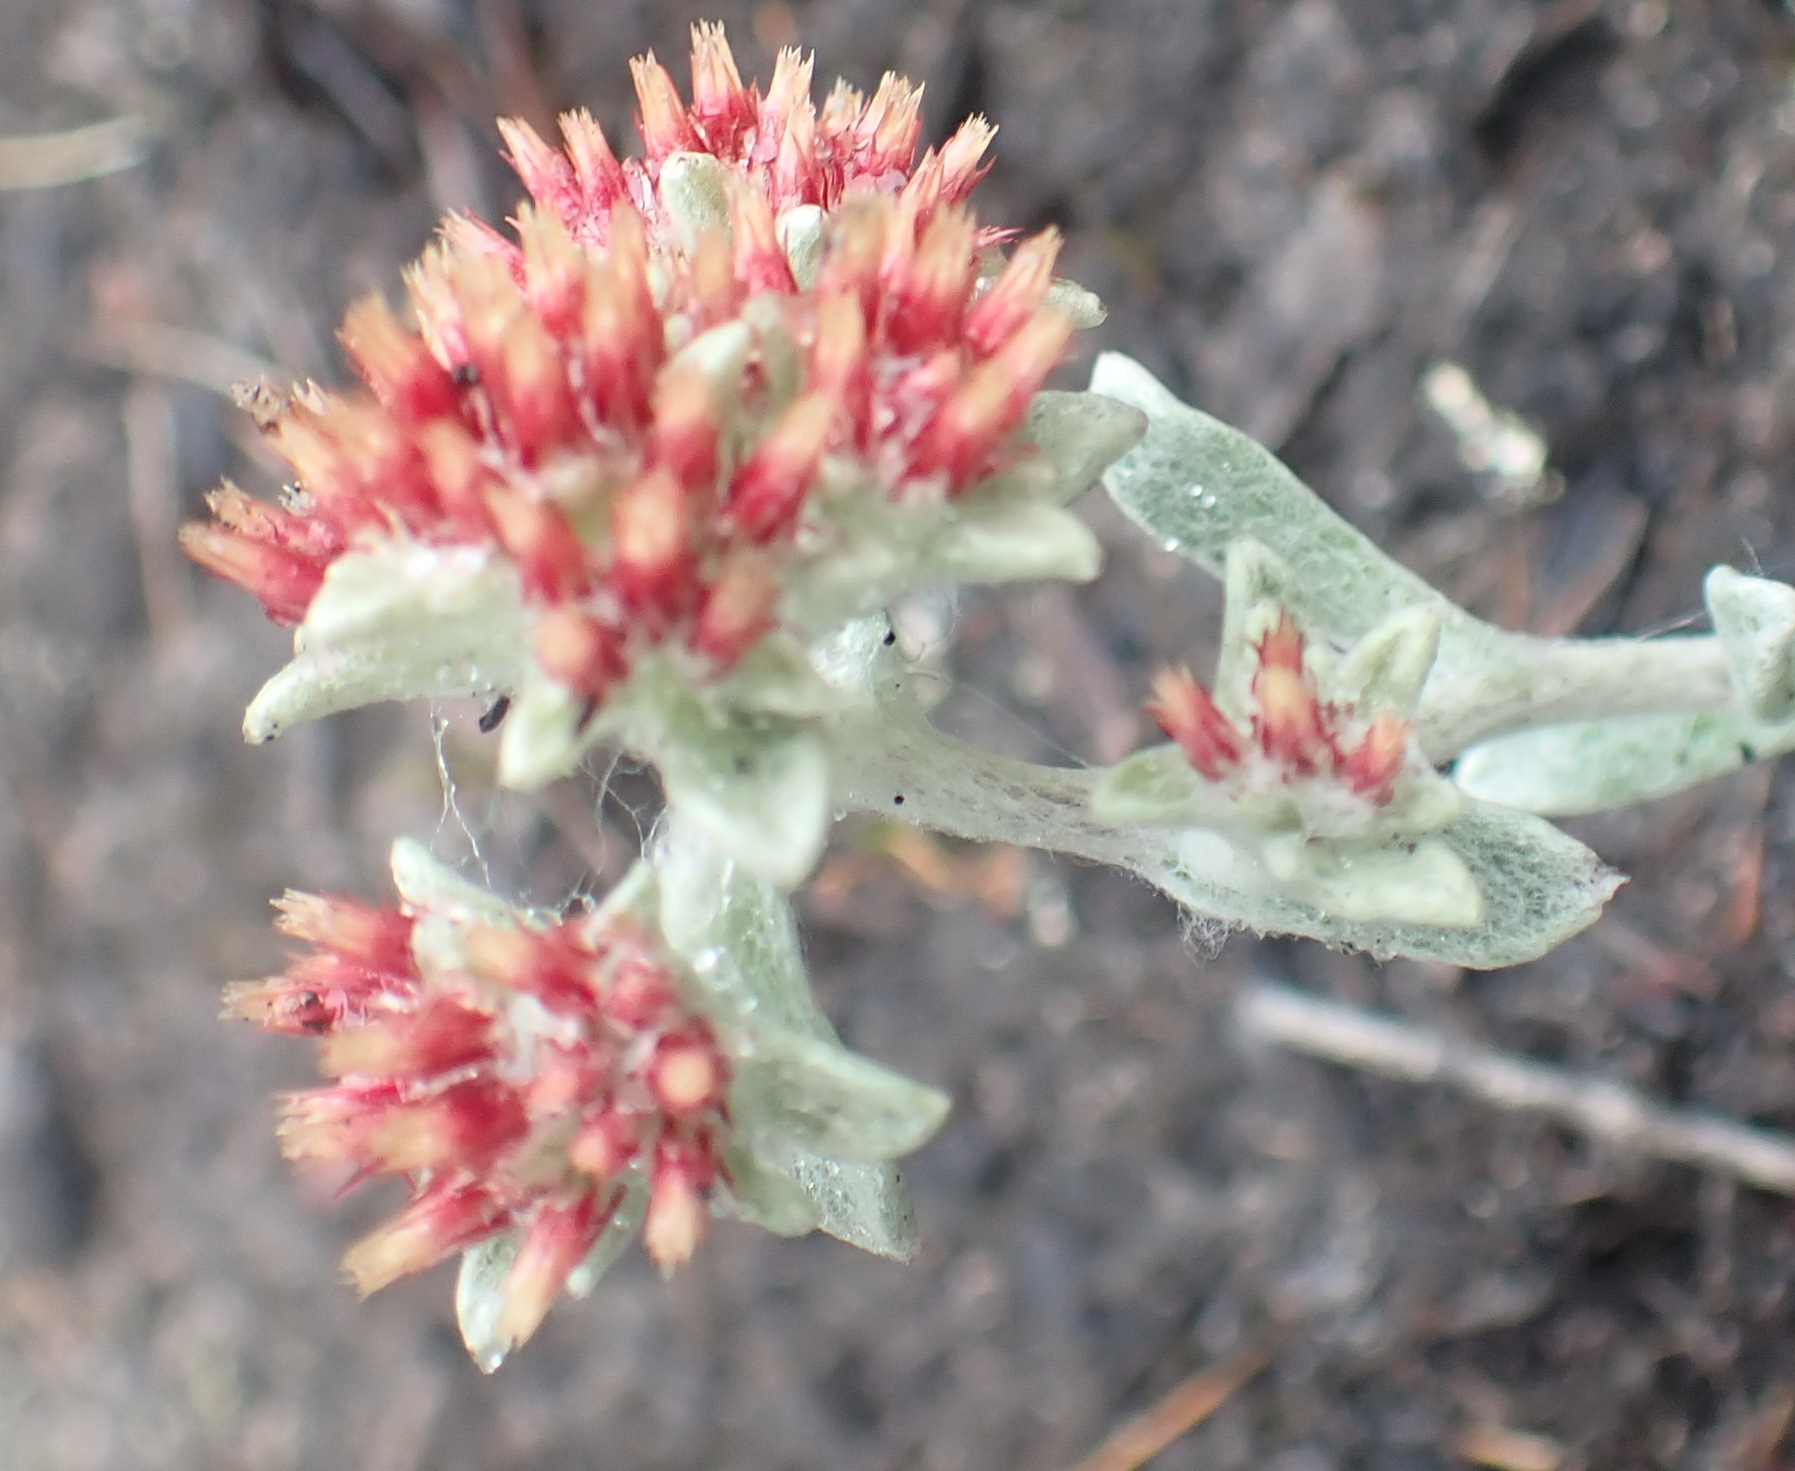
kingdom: Plantae
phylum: Tracheophyta
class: Magnoliopsida
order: Asterales
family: Asteraceae
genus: Helichrysum
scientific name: Helichrysum spiralepis
